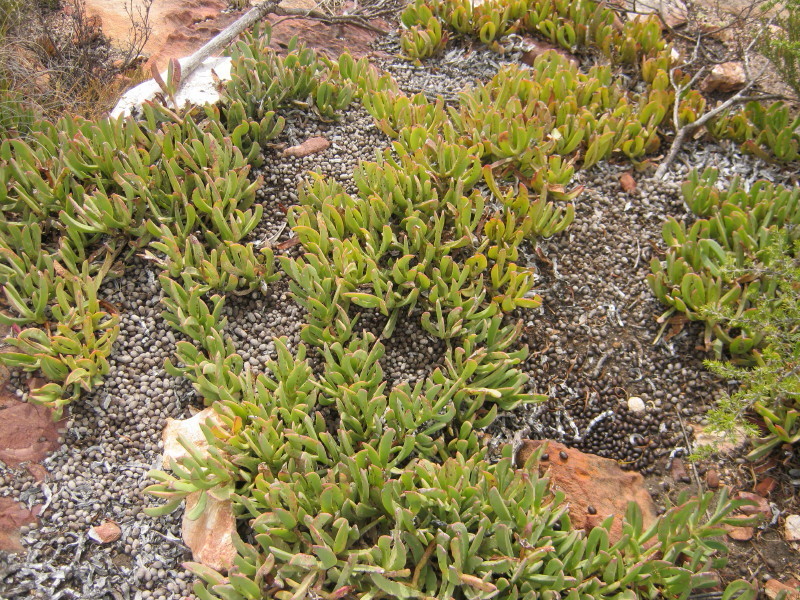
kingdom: Plantae
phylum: Tracheophyta
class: Magnoliopsida
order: Caryophyllales
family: Aizoaceae
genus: Carpobrotus
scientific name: Carpobrotus edulis
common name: Hottentot-fig
